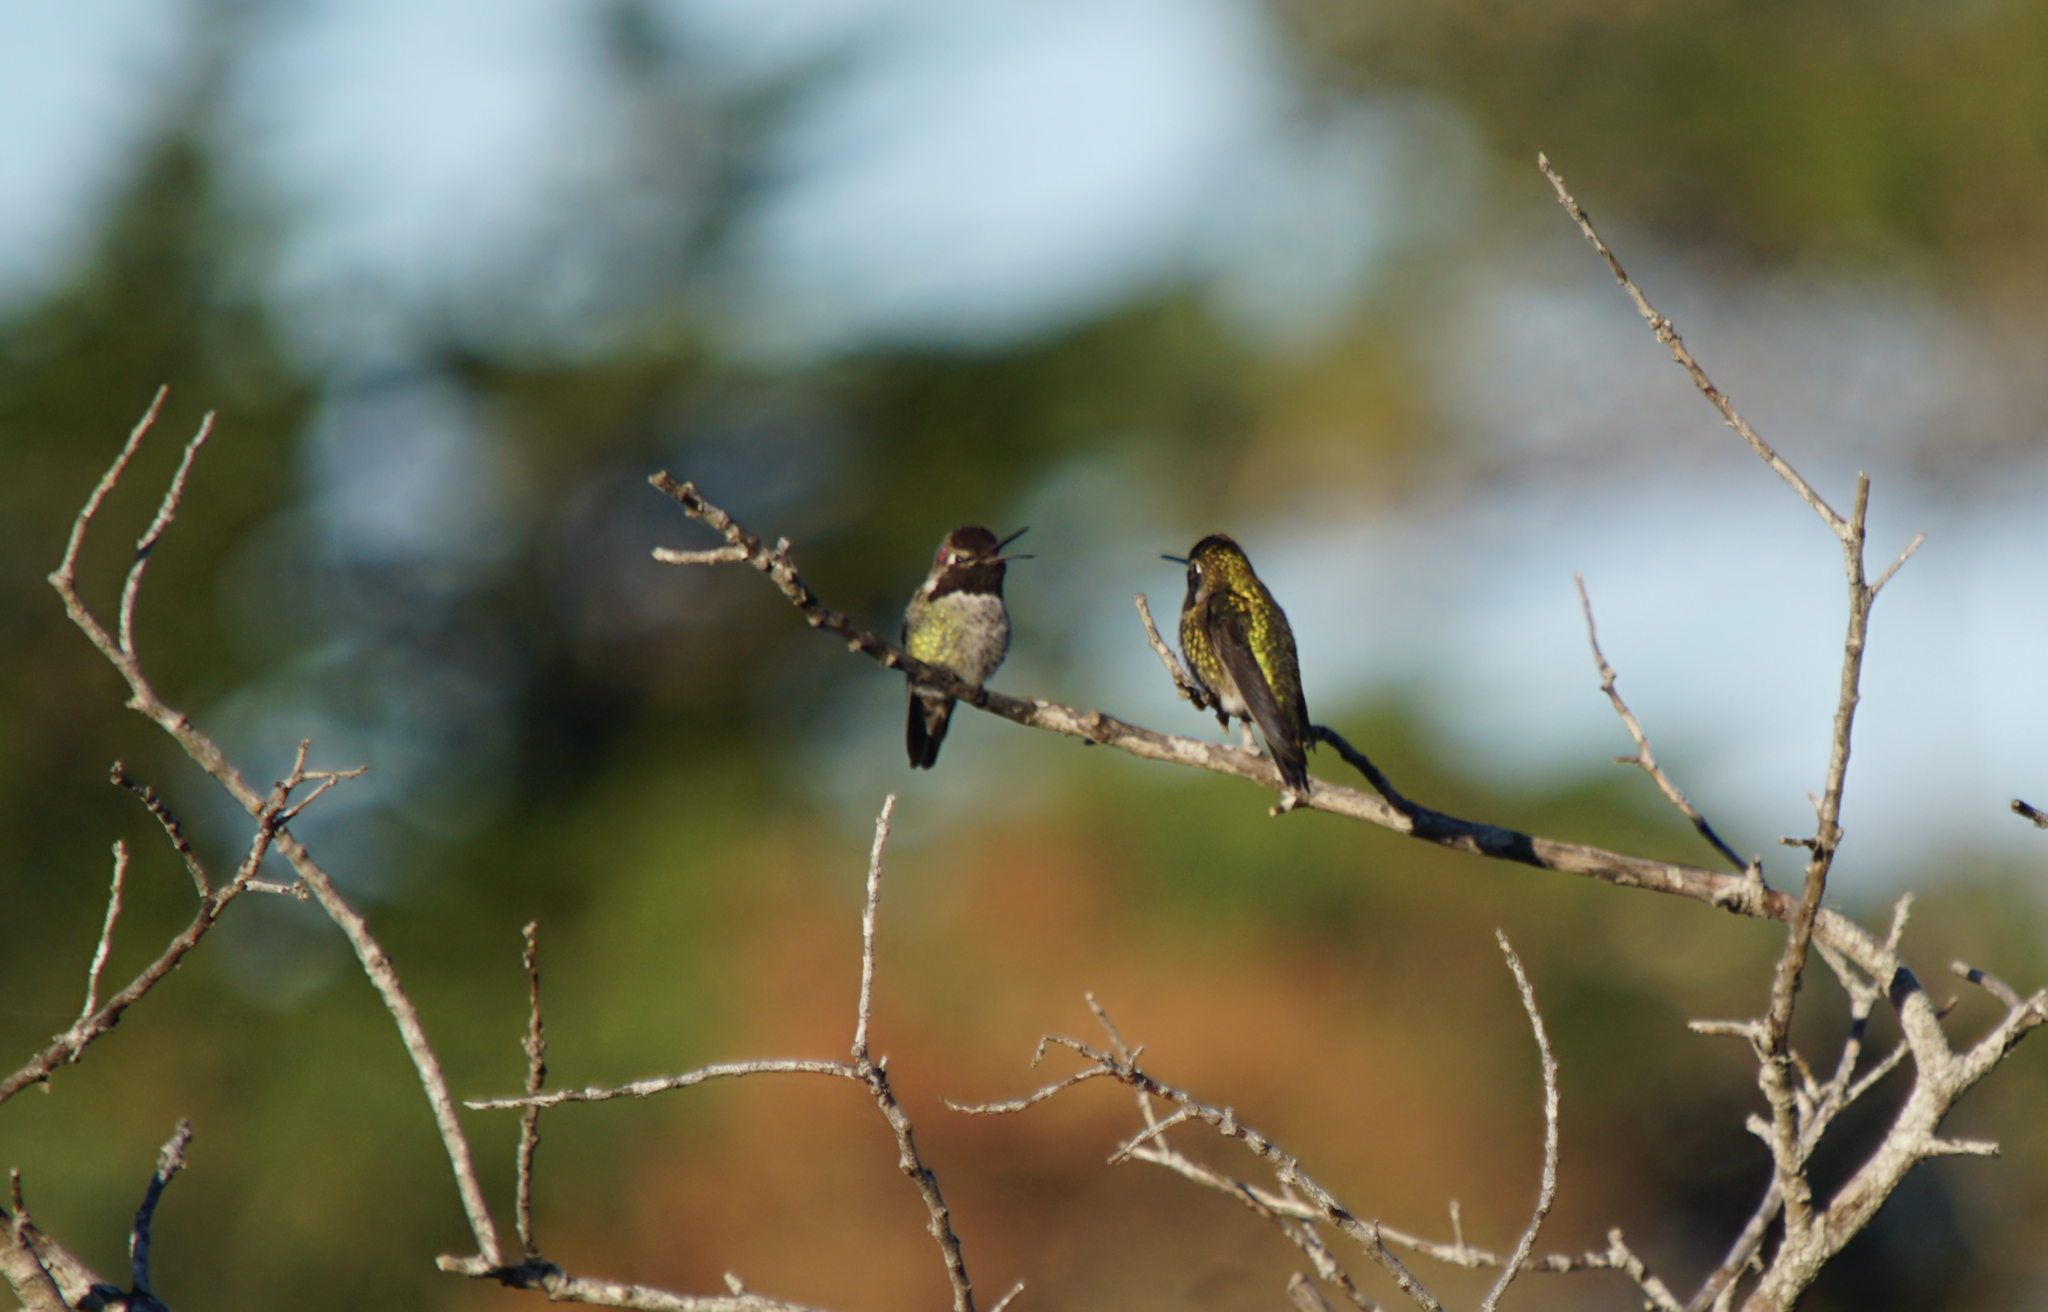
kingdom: Animalia
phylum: Chordata
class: Aves
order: Apodiformes
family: Trochilidae
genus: Calypte
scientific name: Calypte anna
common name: Anna's hummingbird
